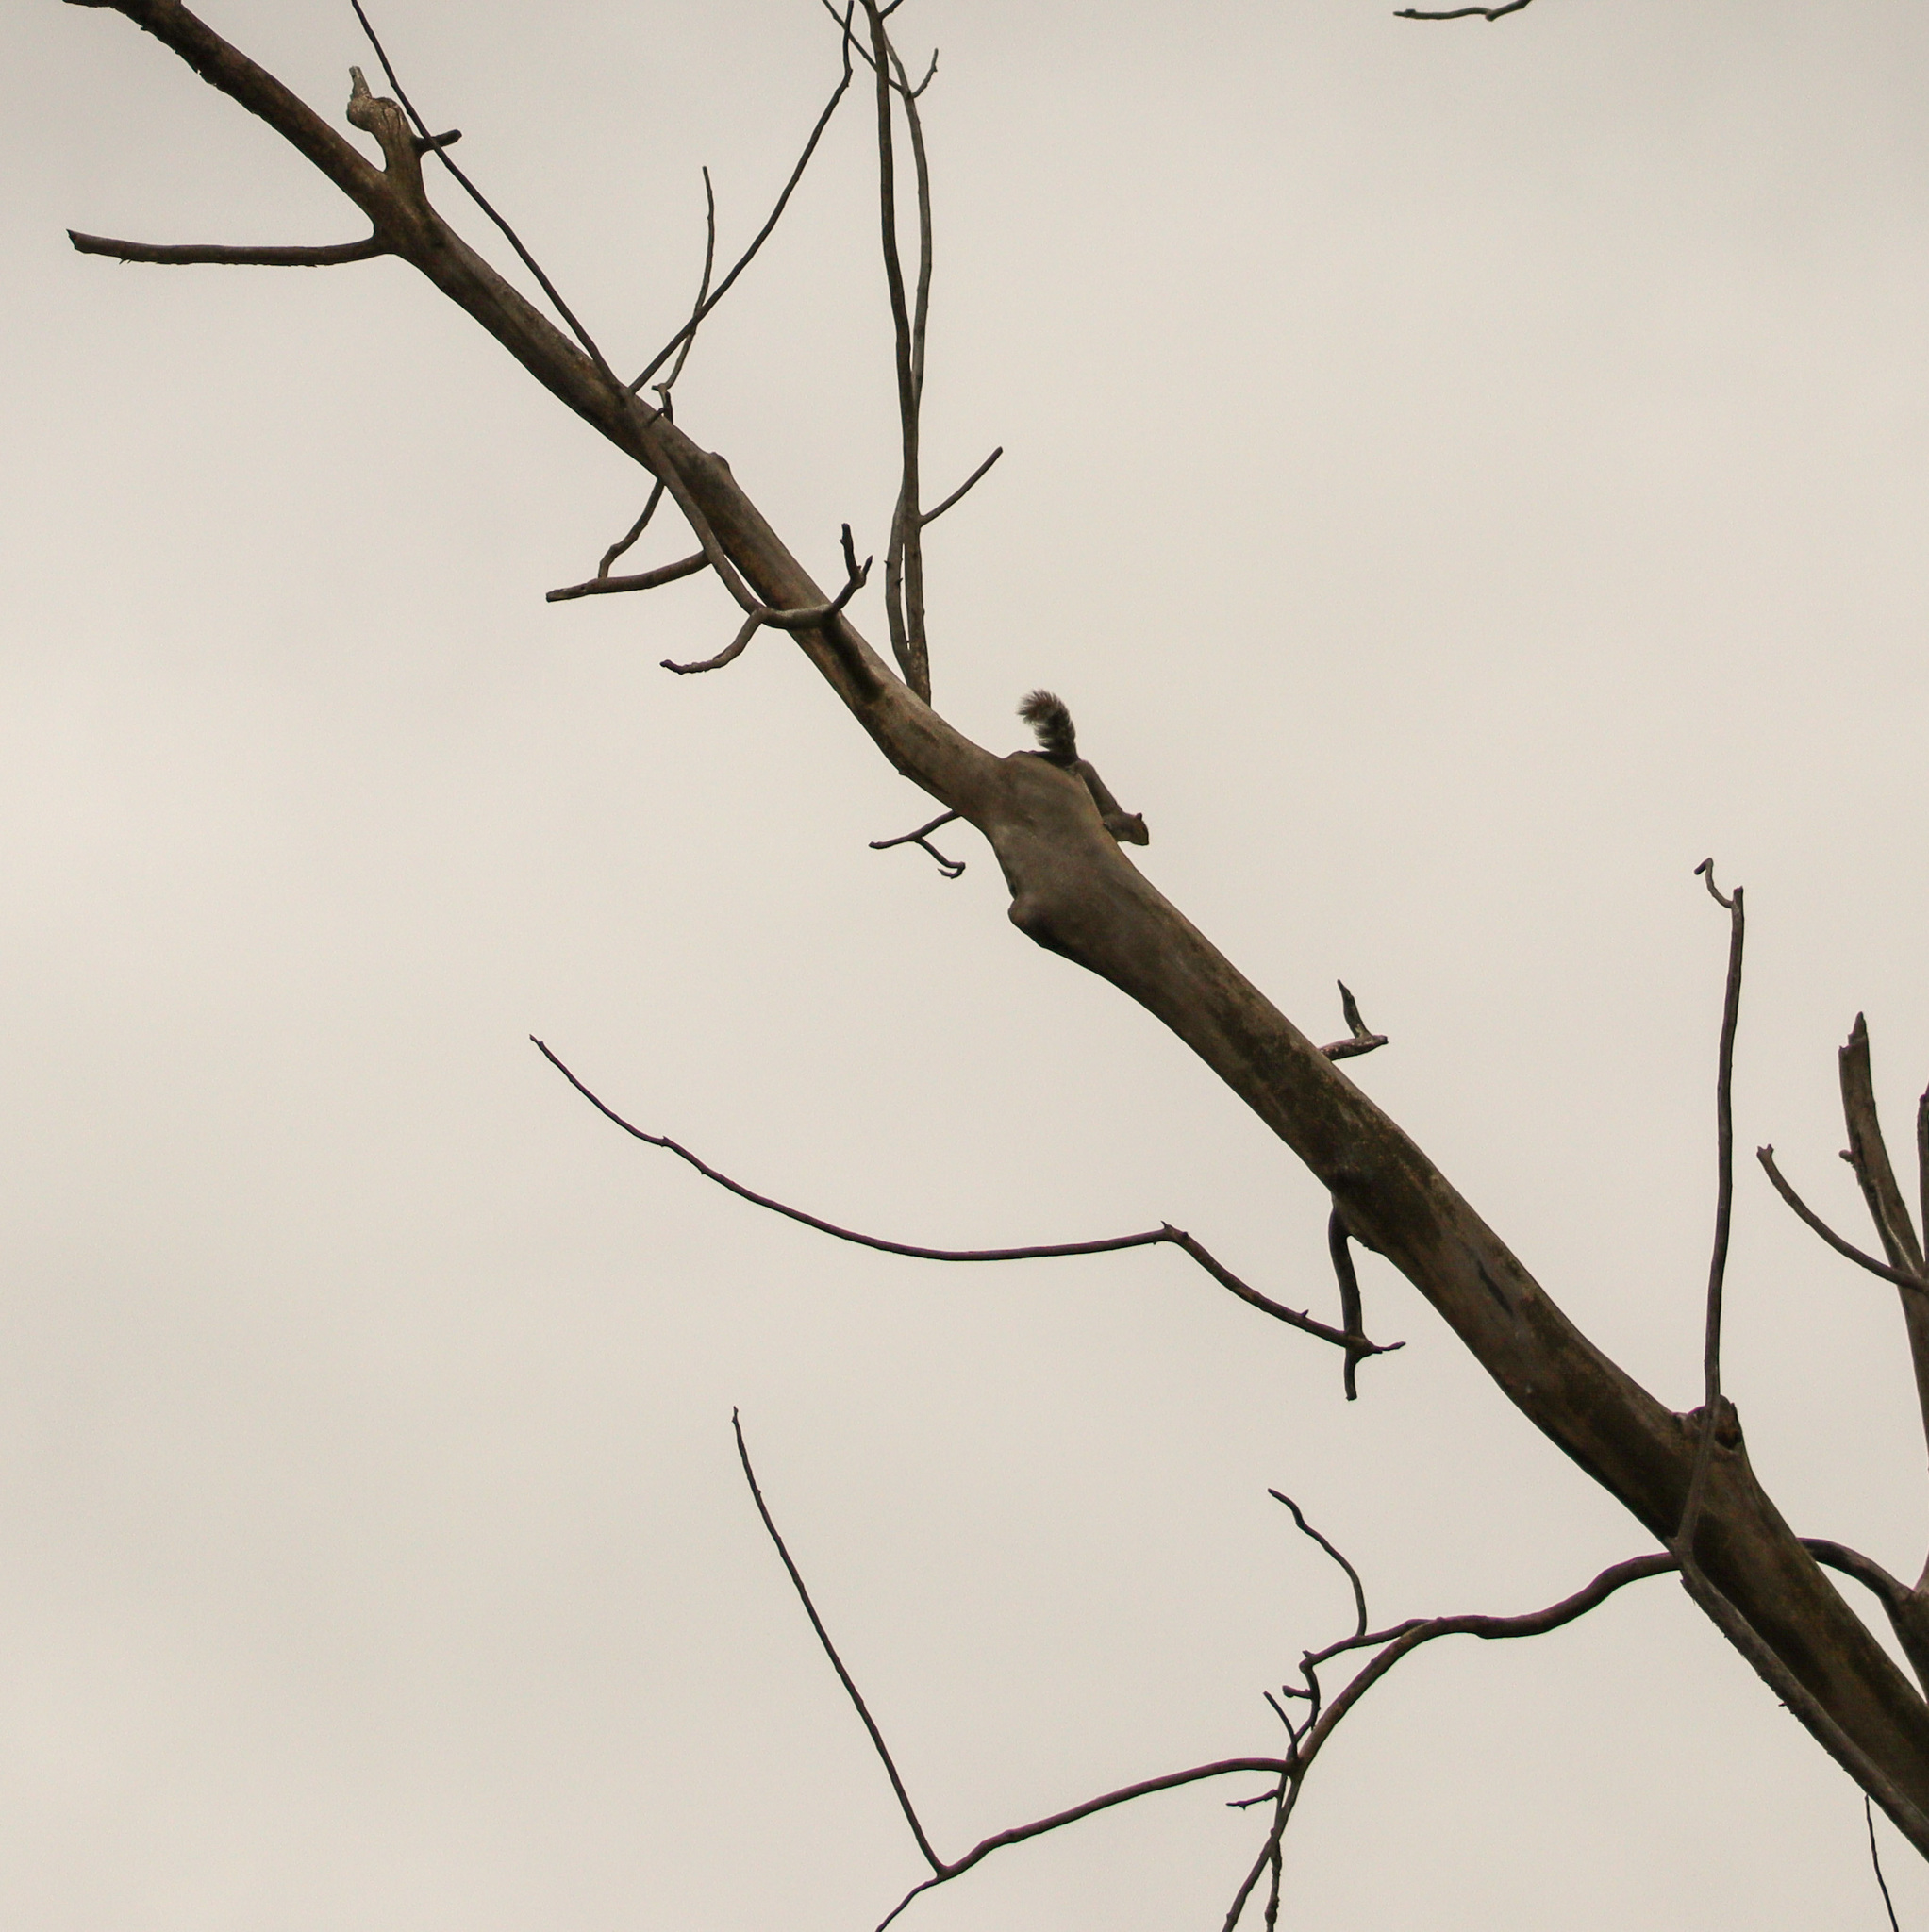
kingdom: Animalia
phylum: Chordata
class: Mammalia
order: Rodentia
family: Sciuridae
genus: Sciurus
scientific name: Sciurus carolinensis
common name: Eastern gray squirrel
